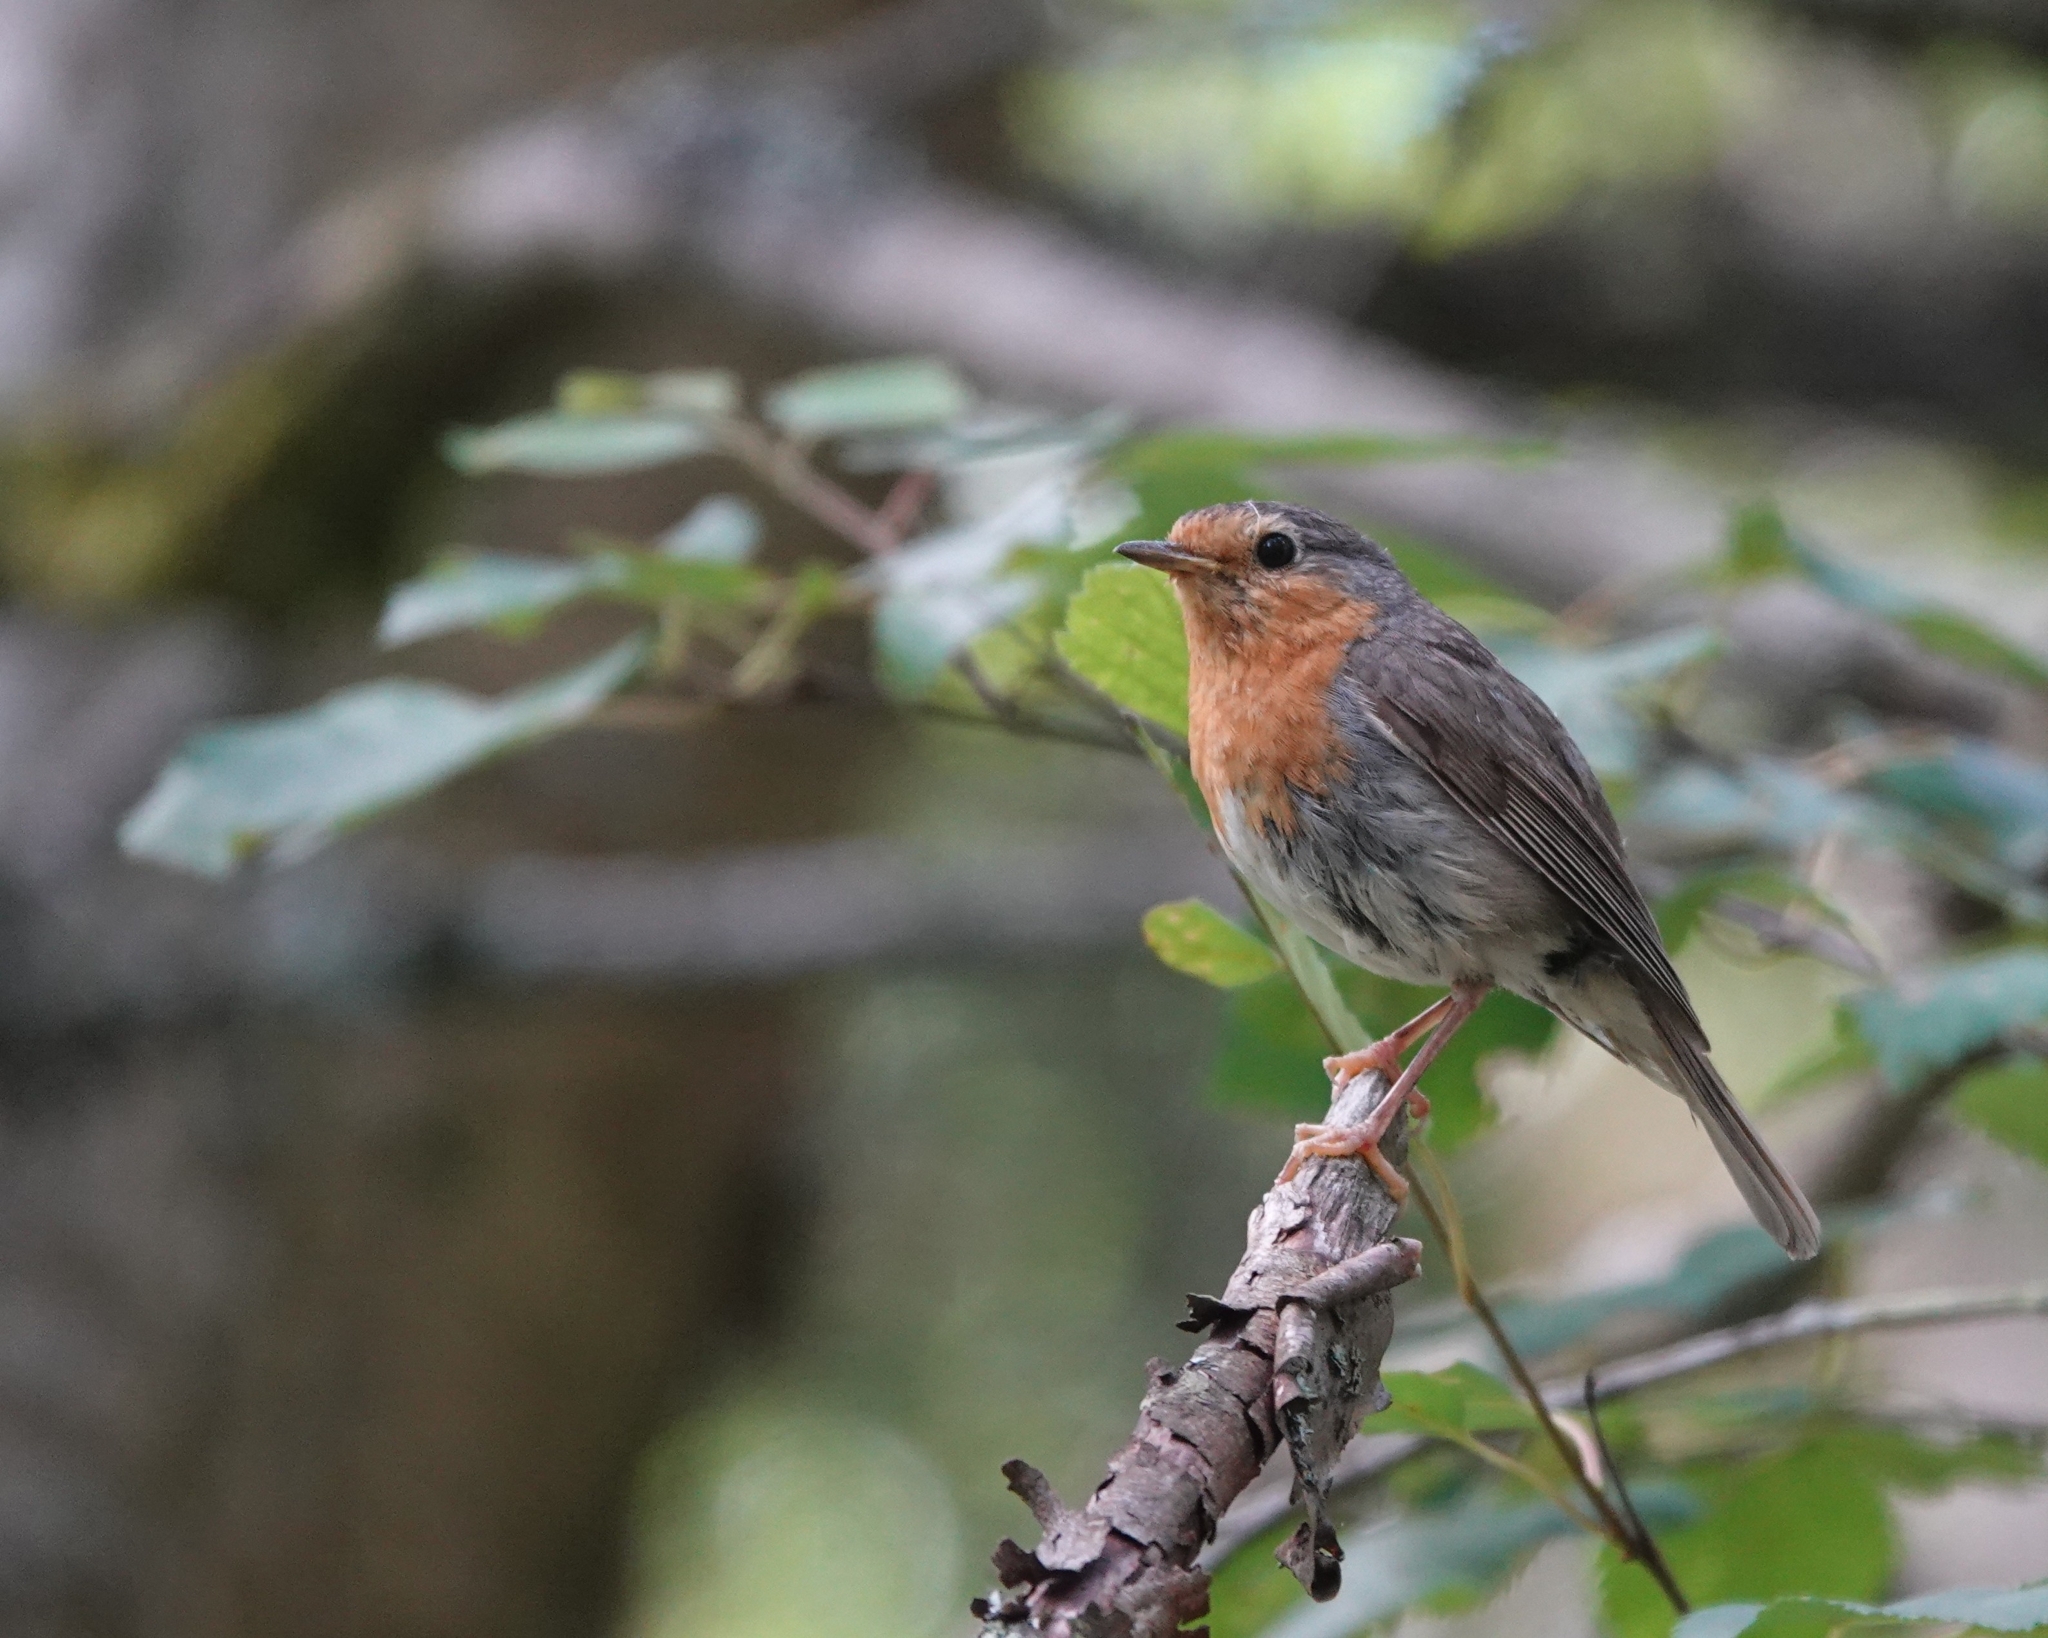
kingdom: Animalia
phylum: Chordata
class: Aves
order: Passeriformes
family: Muscicapidae
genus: Erithacus
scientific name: Erithacus rubecula
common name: European robin
